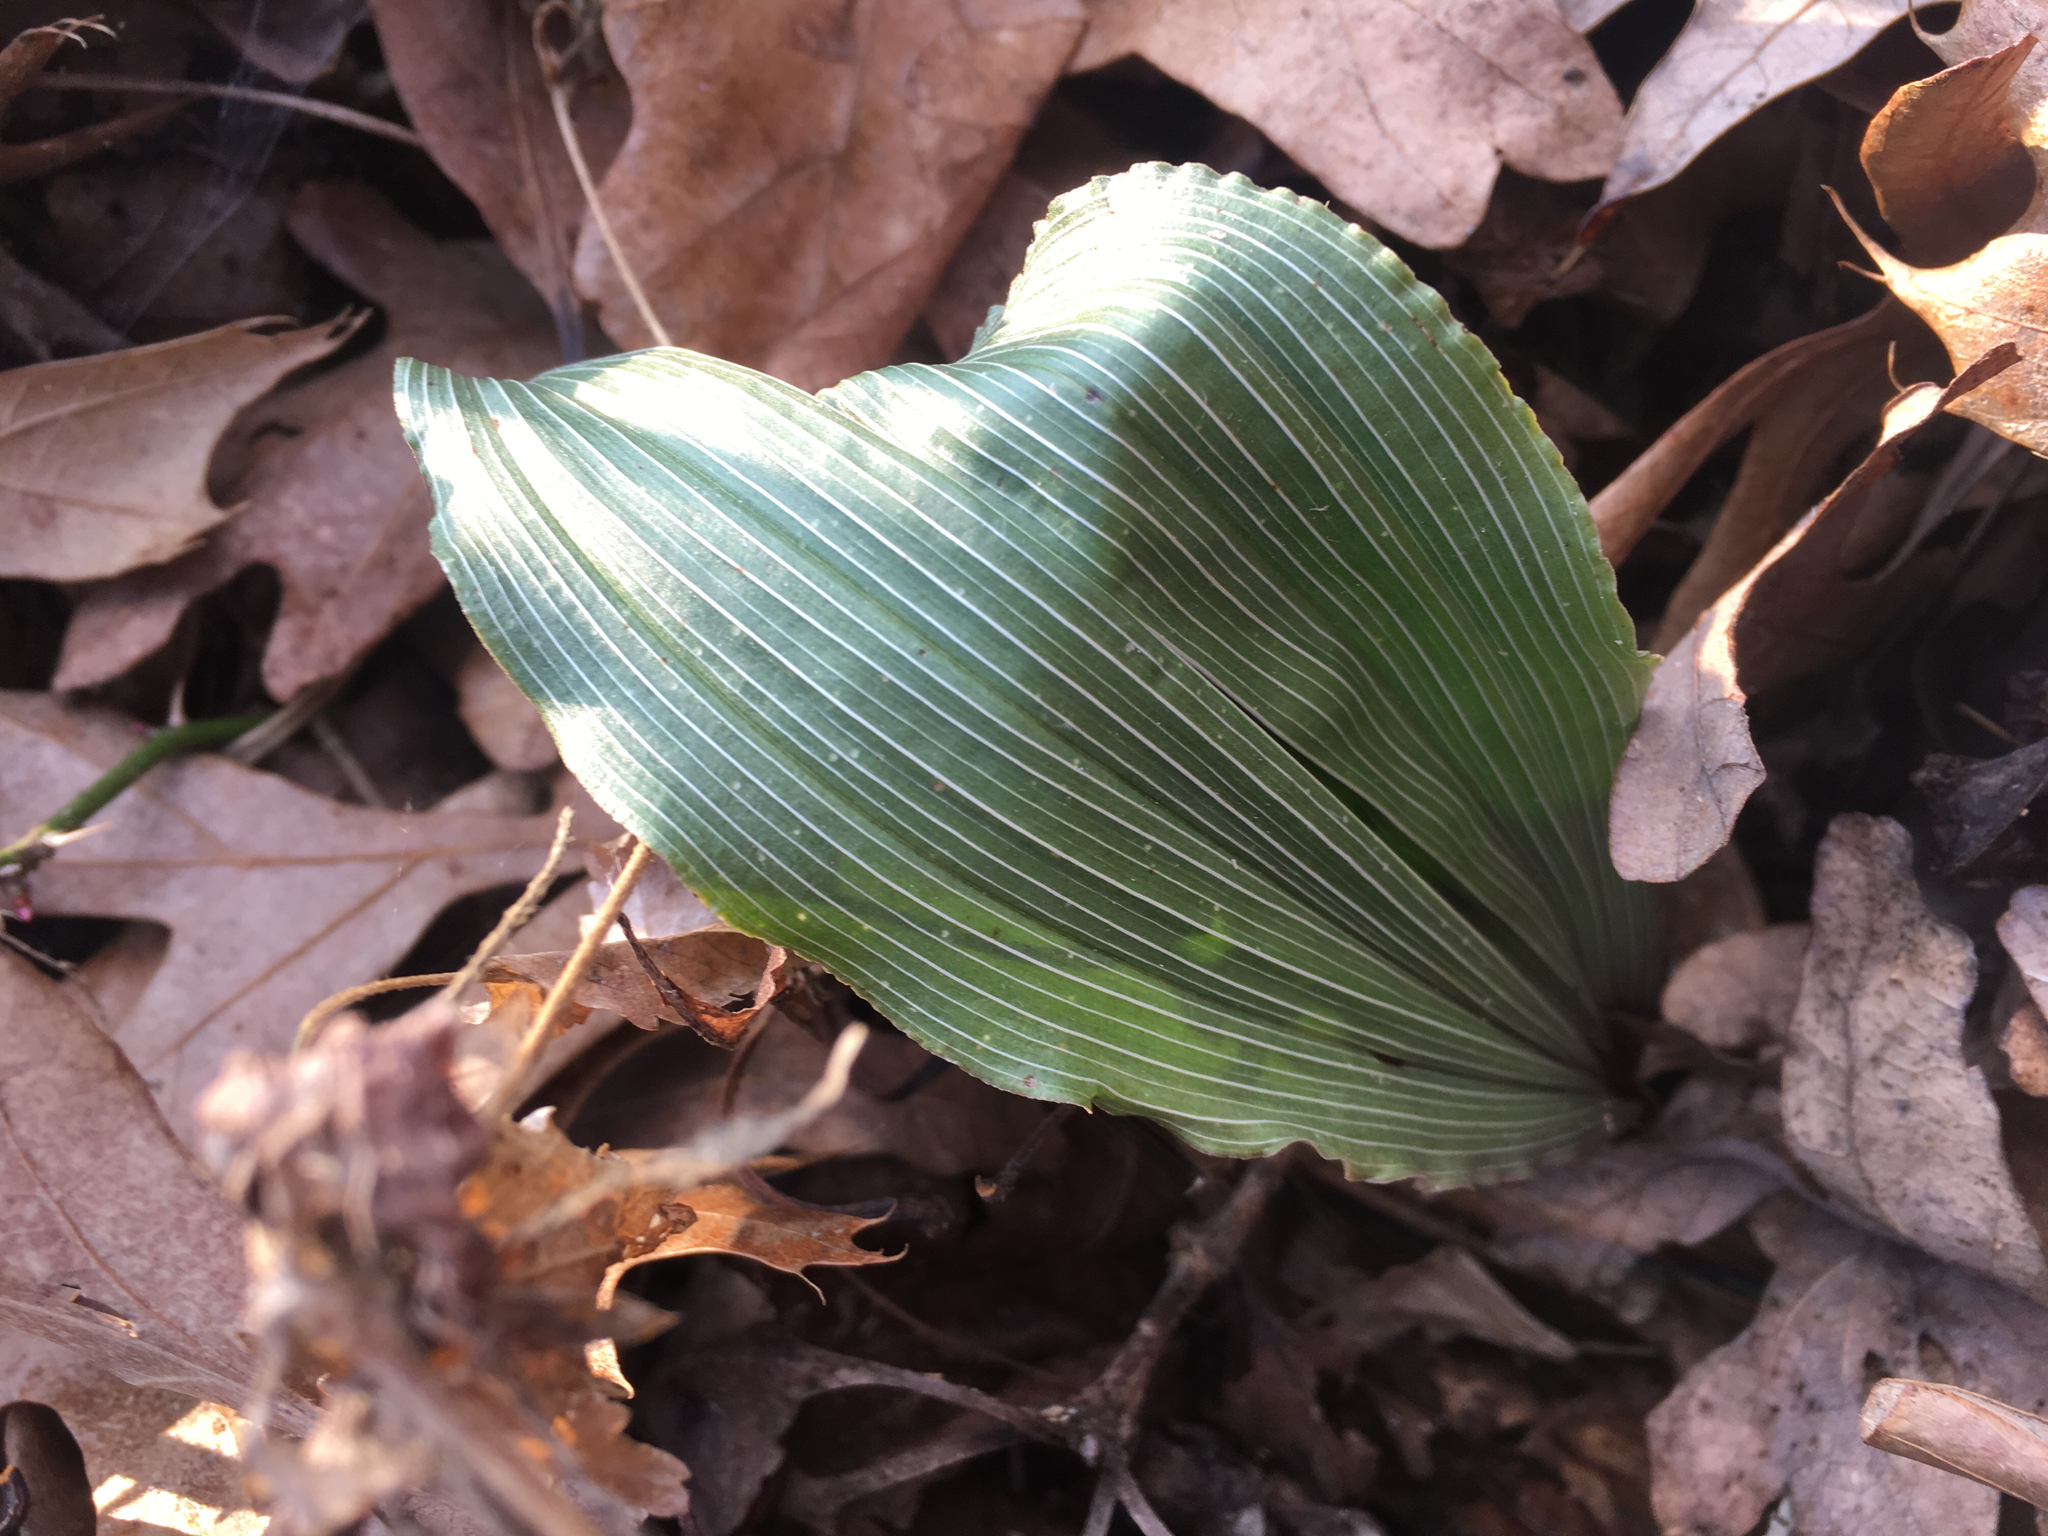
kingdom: Plantae
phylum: Tracheophyta
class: Liliopsida
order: Asparagales
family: Orchidaceae
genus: Aplectrum
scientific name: Aplectrum hyemale
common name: Adam-and-eve
